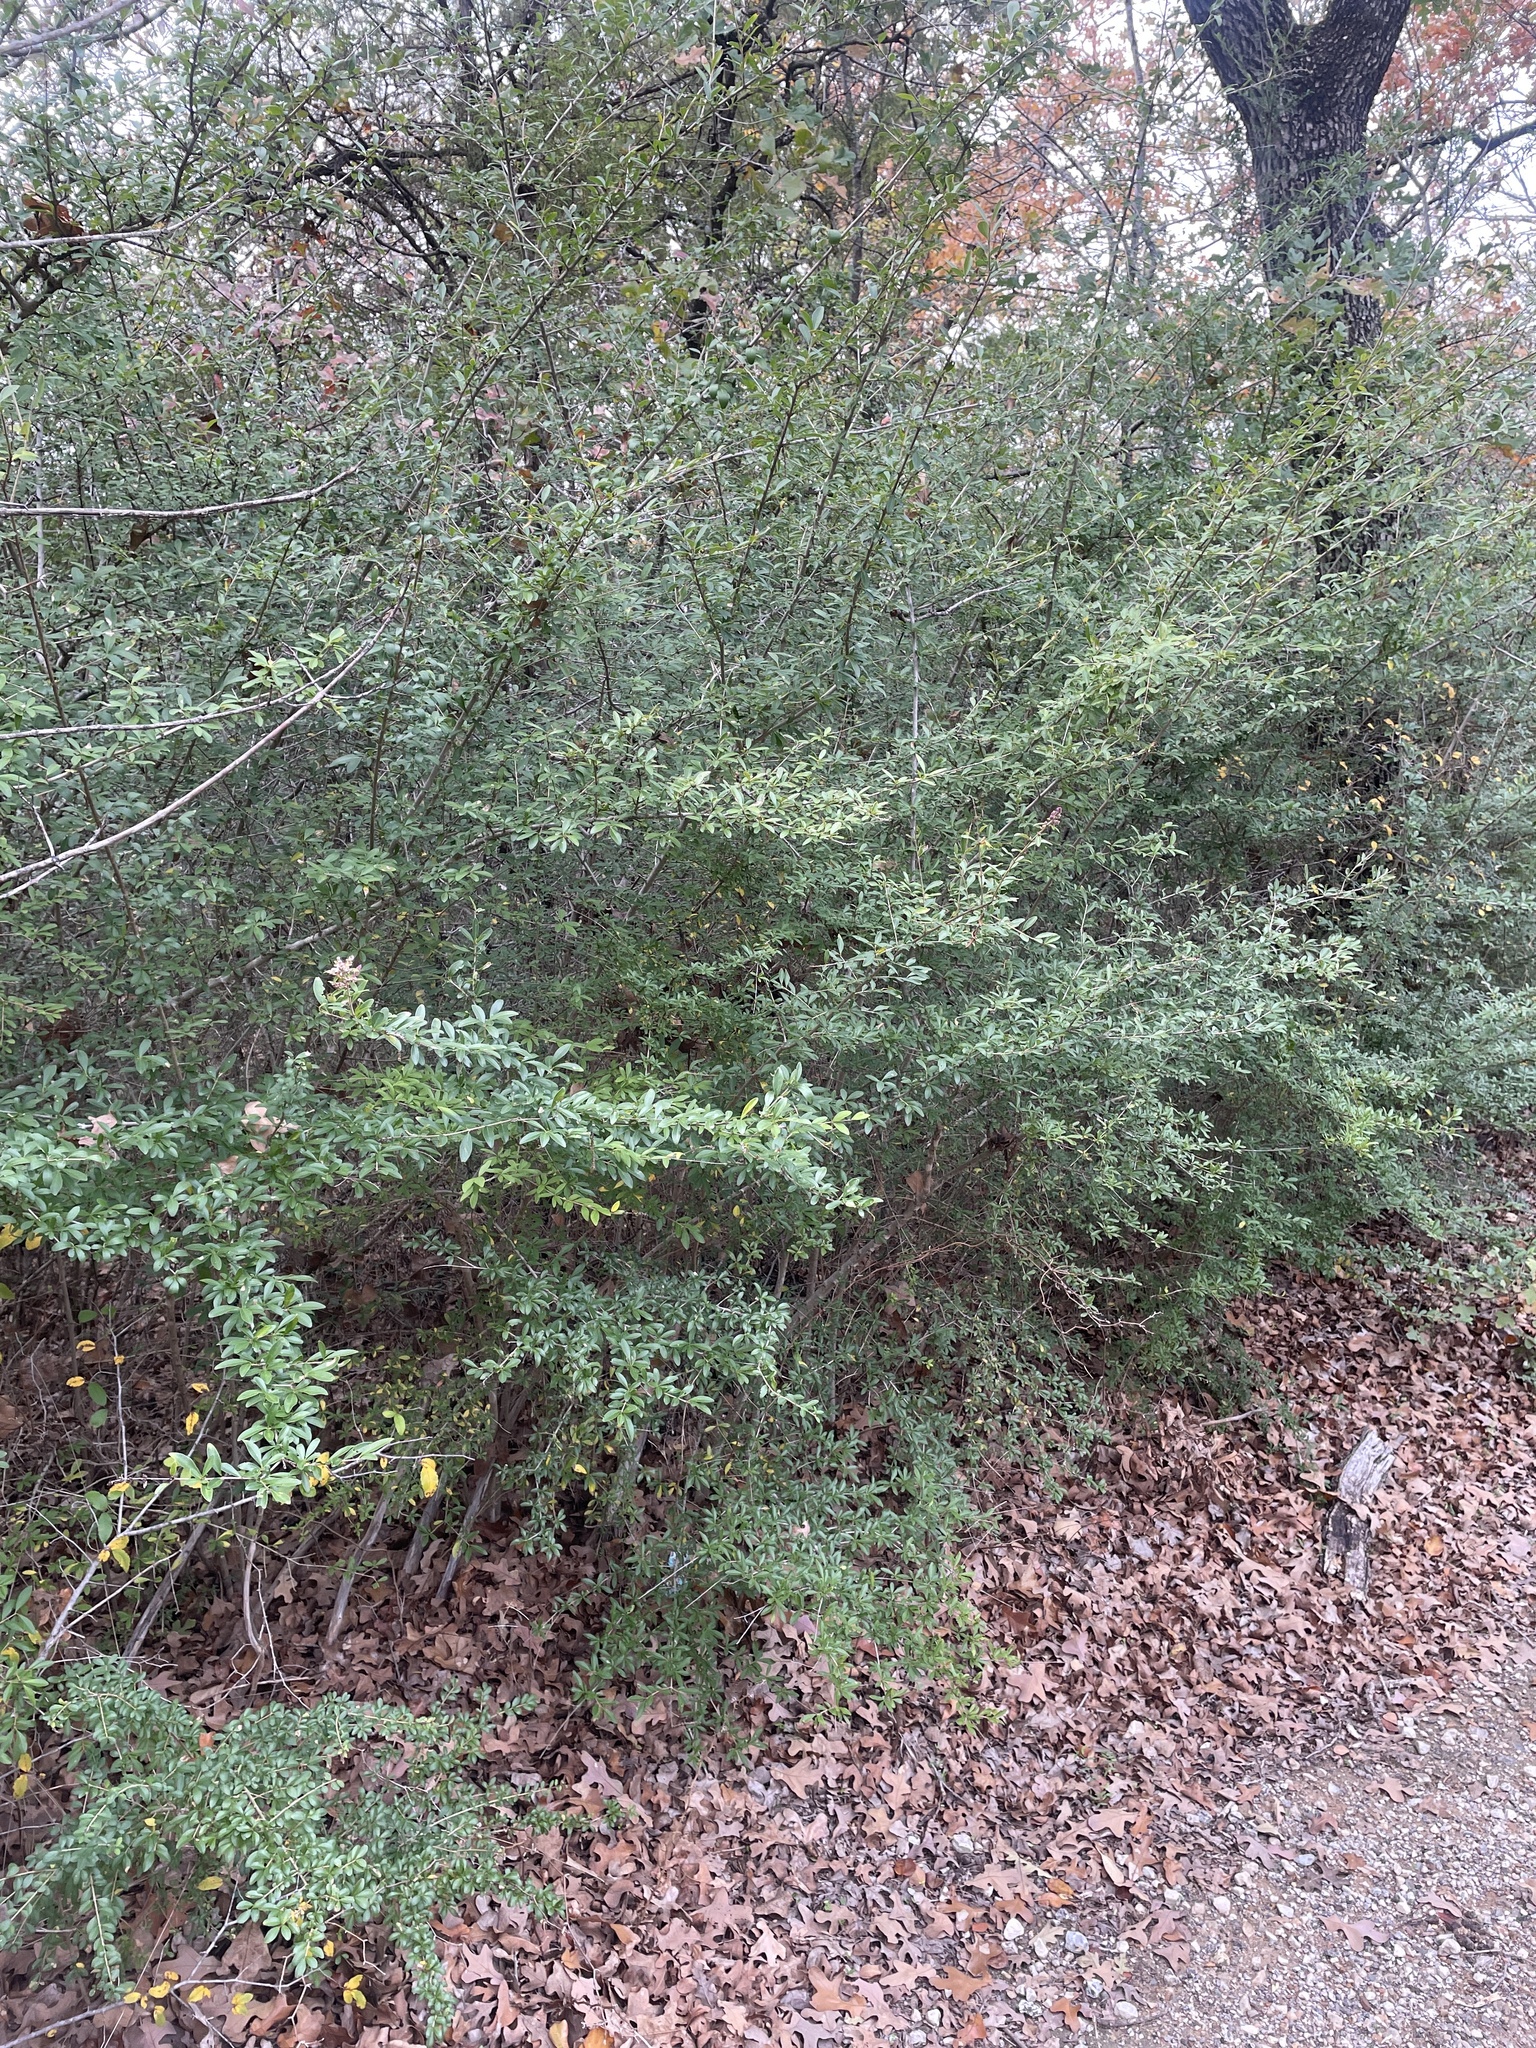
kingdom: Plantae
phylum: Tracheophyta
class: Magnoliopsida
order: Lamiales
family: Oleaceae
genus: Ligustrum
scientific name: Ligustrum quihoui
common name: Waxyleaf privet
